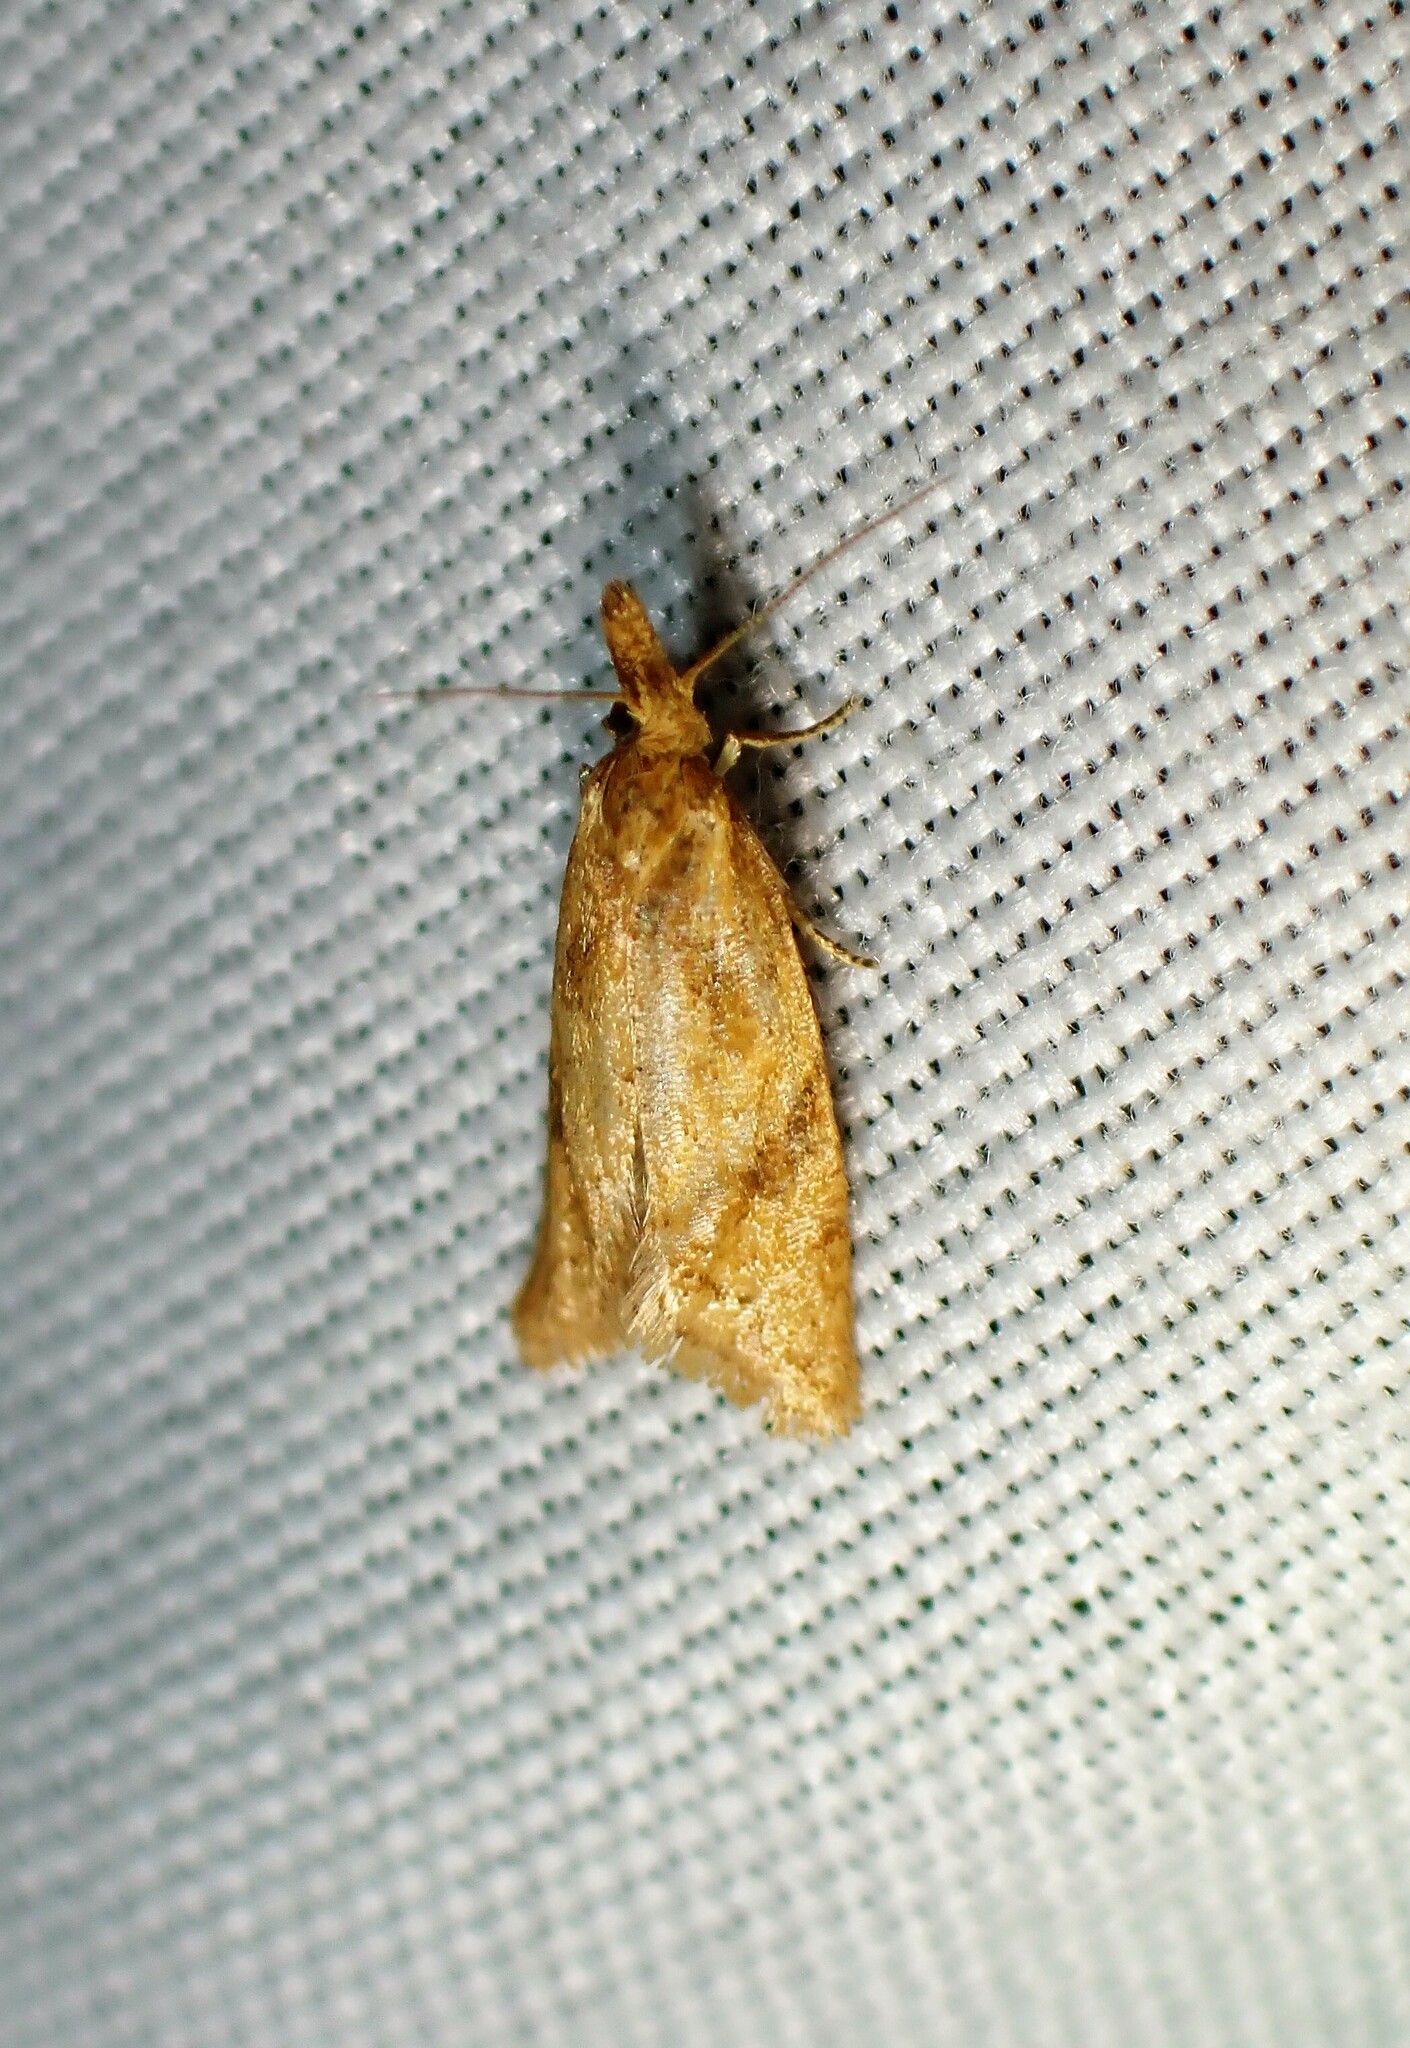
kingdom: Animalia
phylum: Arthropoda
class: Insecta
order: Lepidoptera
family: Tortricidae
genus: Aethes
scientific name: Aethes biscana
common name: Reddish aethes
